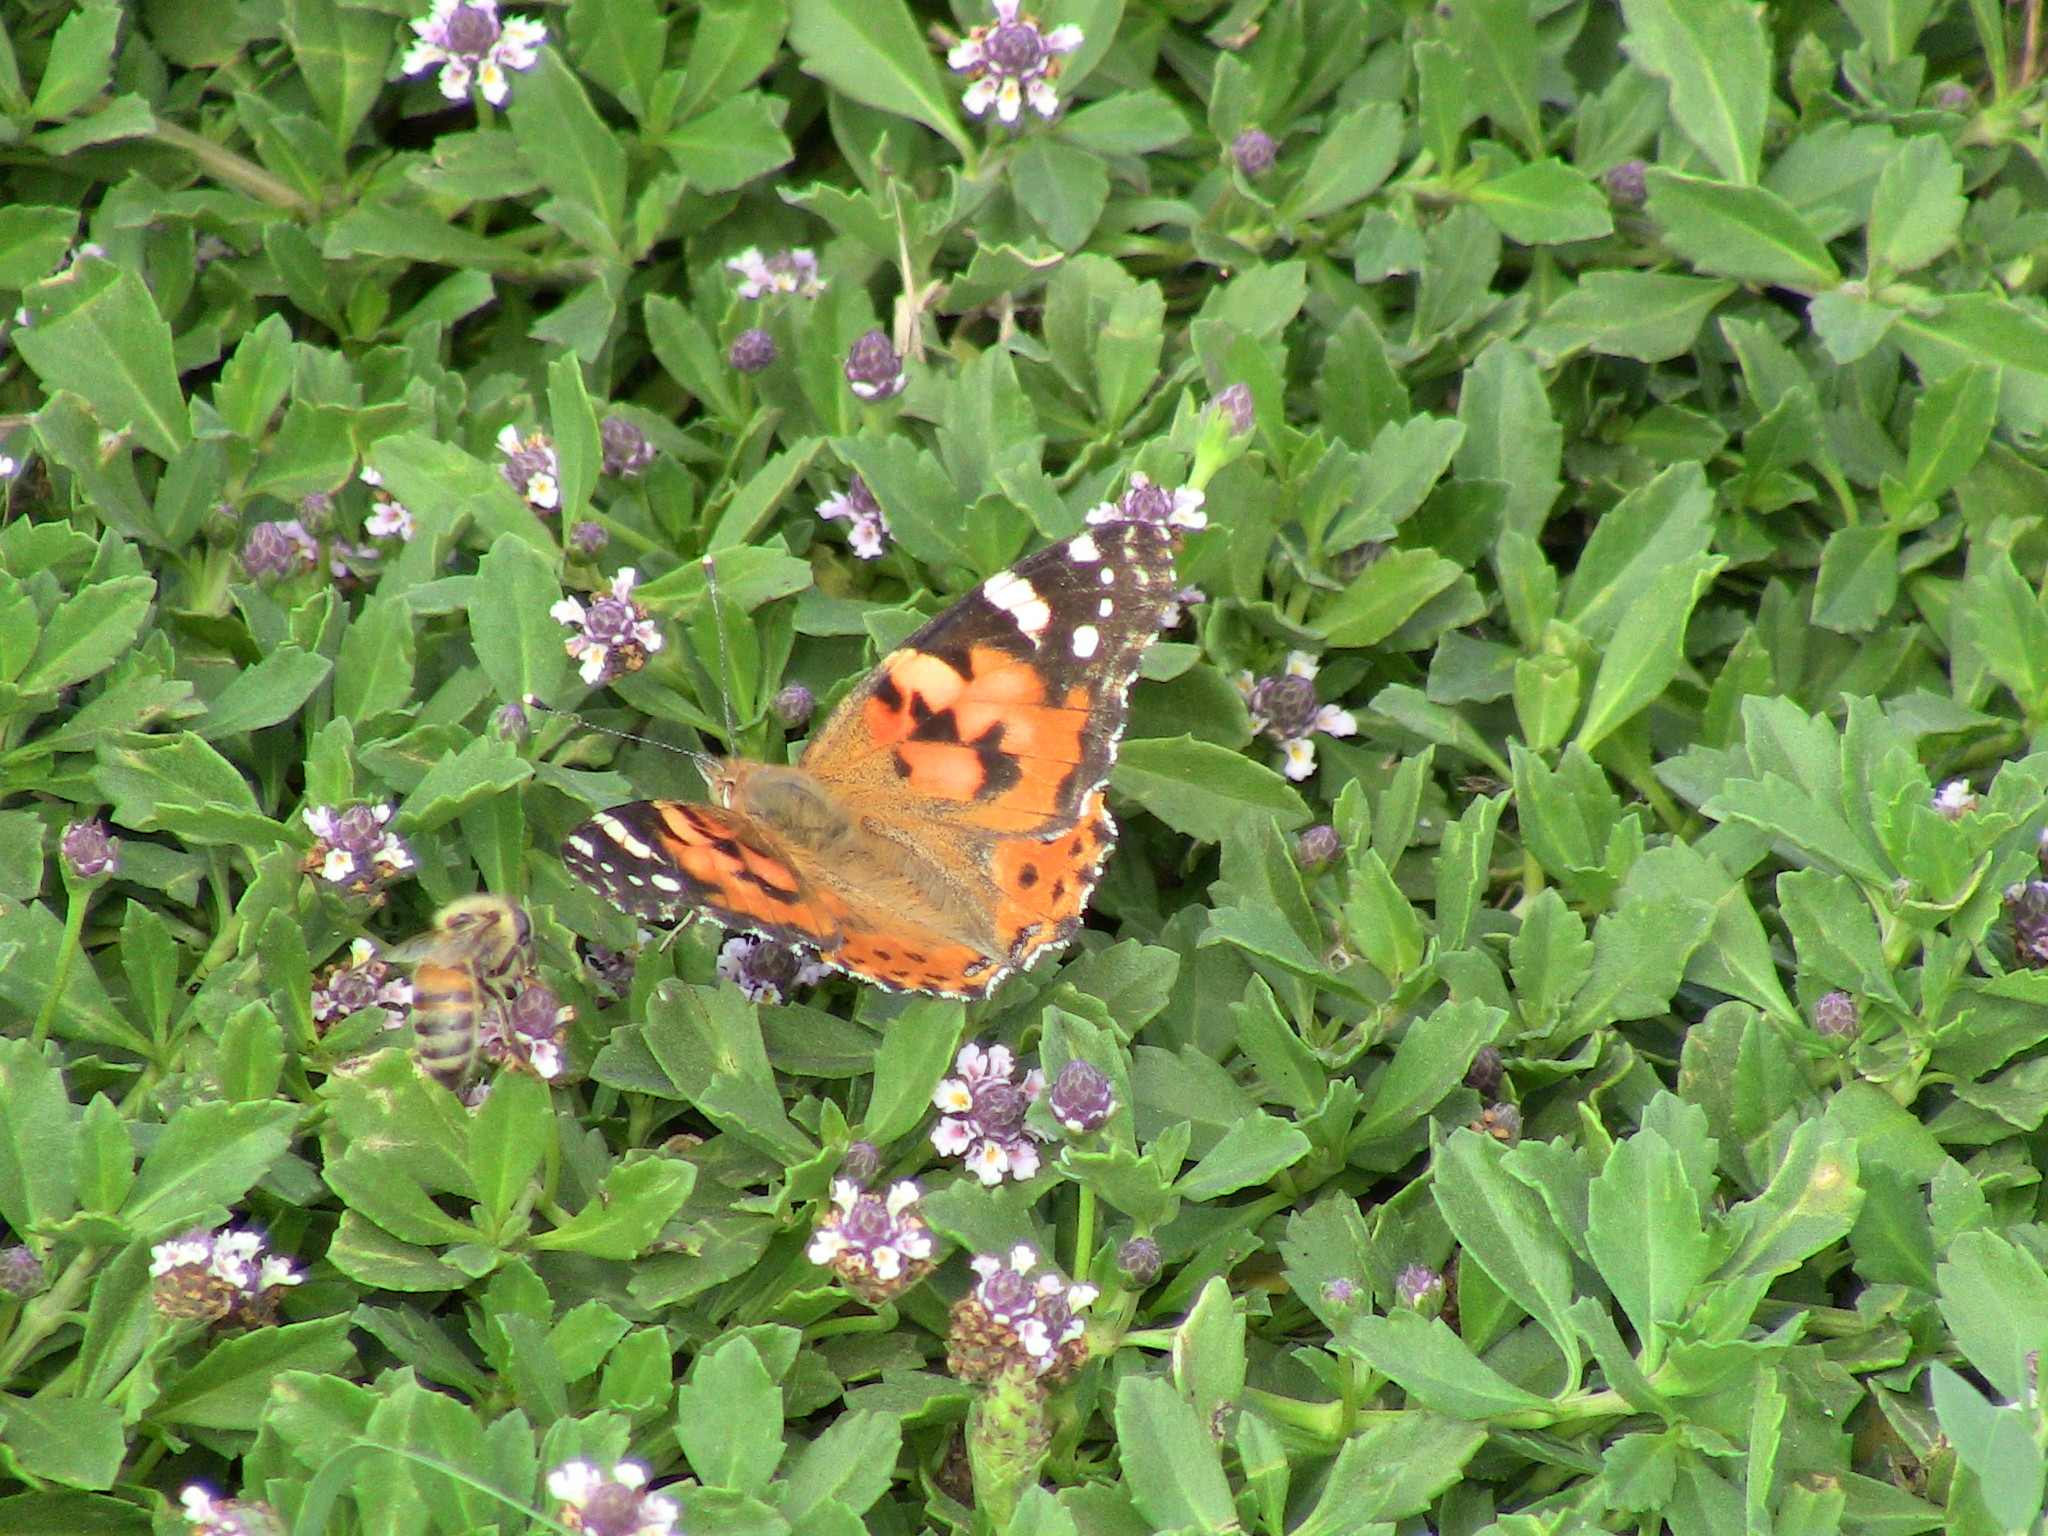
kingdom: Animalia
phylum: Arthropoda
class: Insecta
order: Lepidoptera
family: Nymphalidae
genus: Vanessa
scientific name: Vanessa cardui
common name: Painted lady
